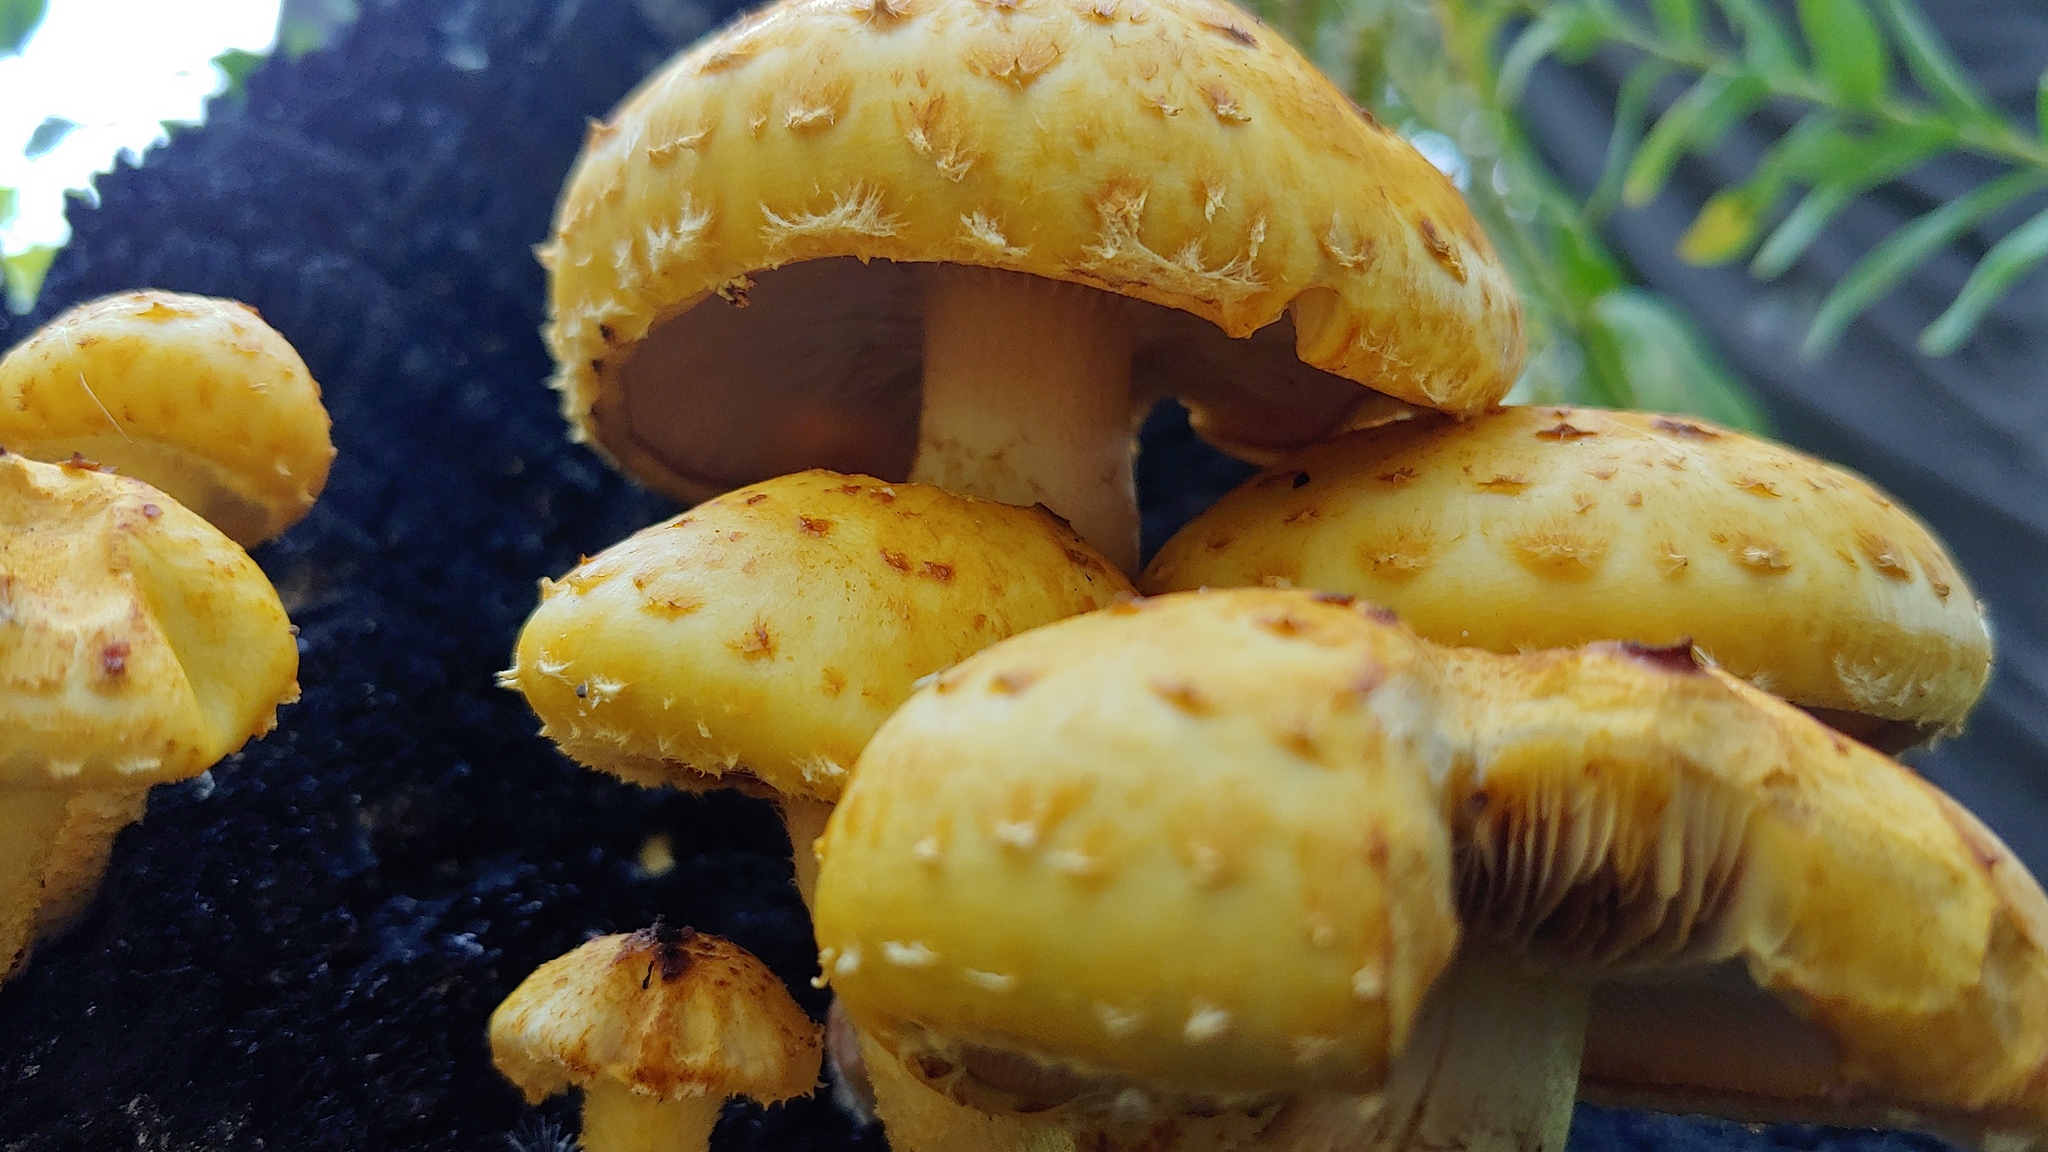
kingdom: Fungi
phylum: Basidiomycota
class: Agaricomycetes
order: Agaricales
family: Strophariaceae
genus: Pholiota
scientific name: Pholiota aurivella
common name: Golden scalycap
